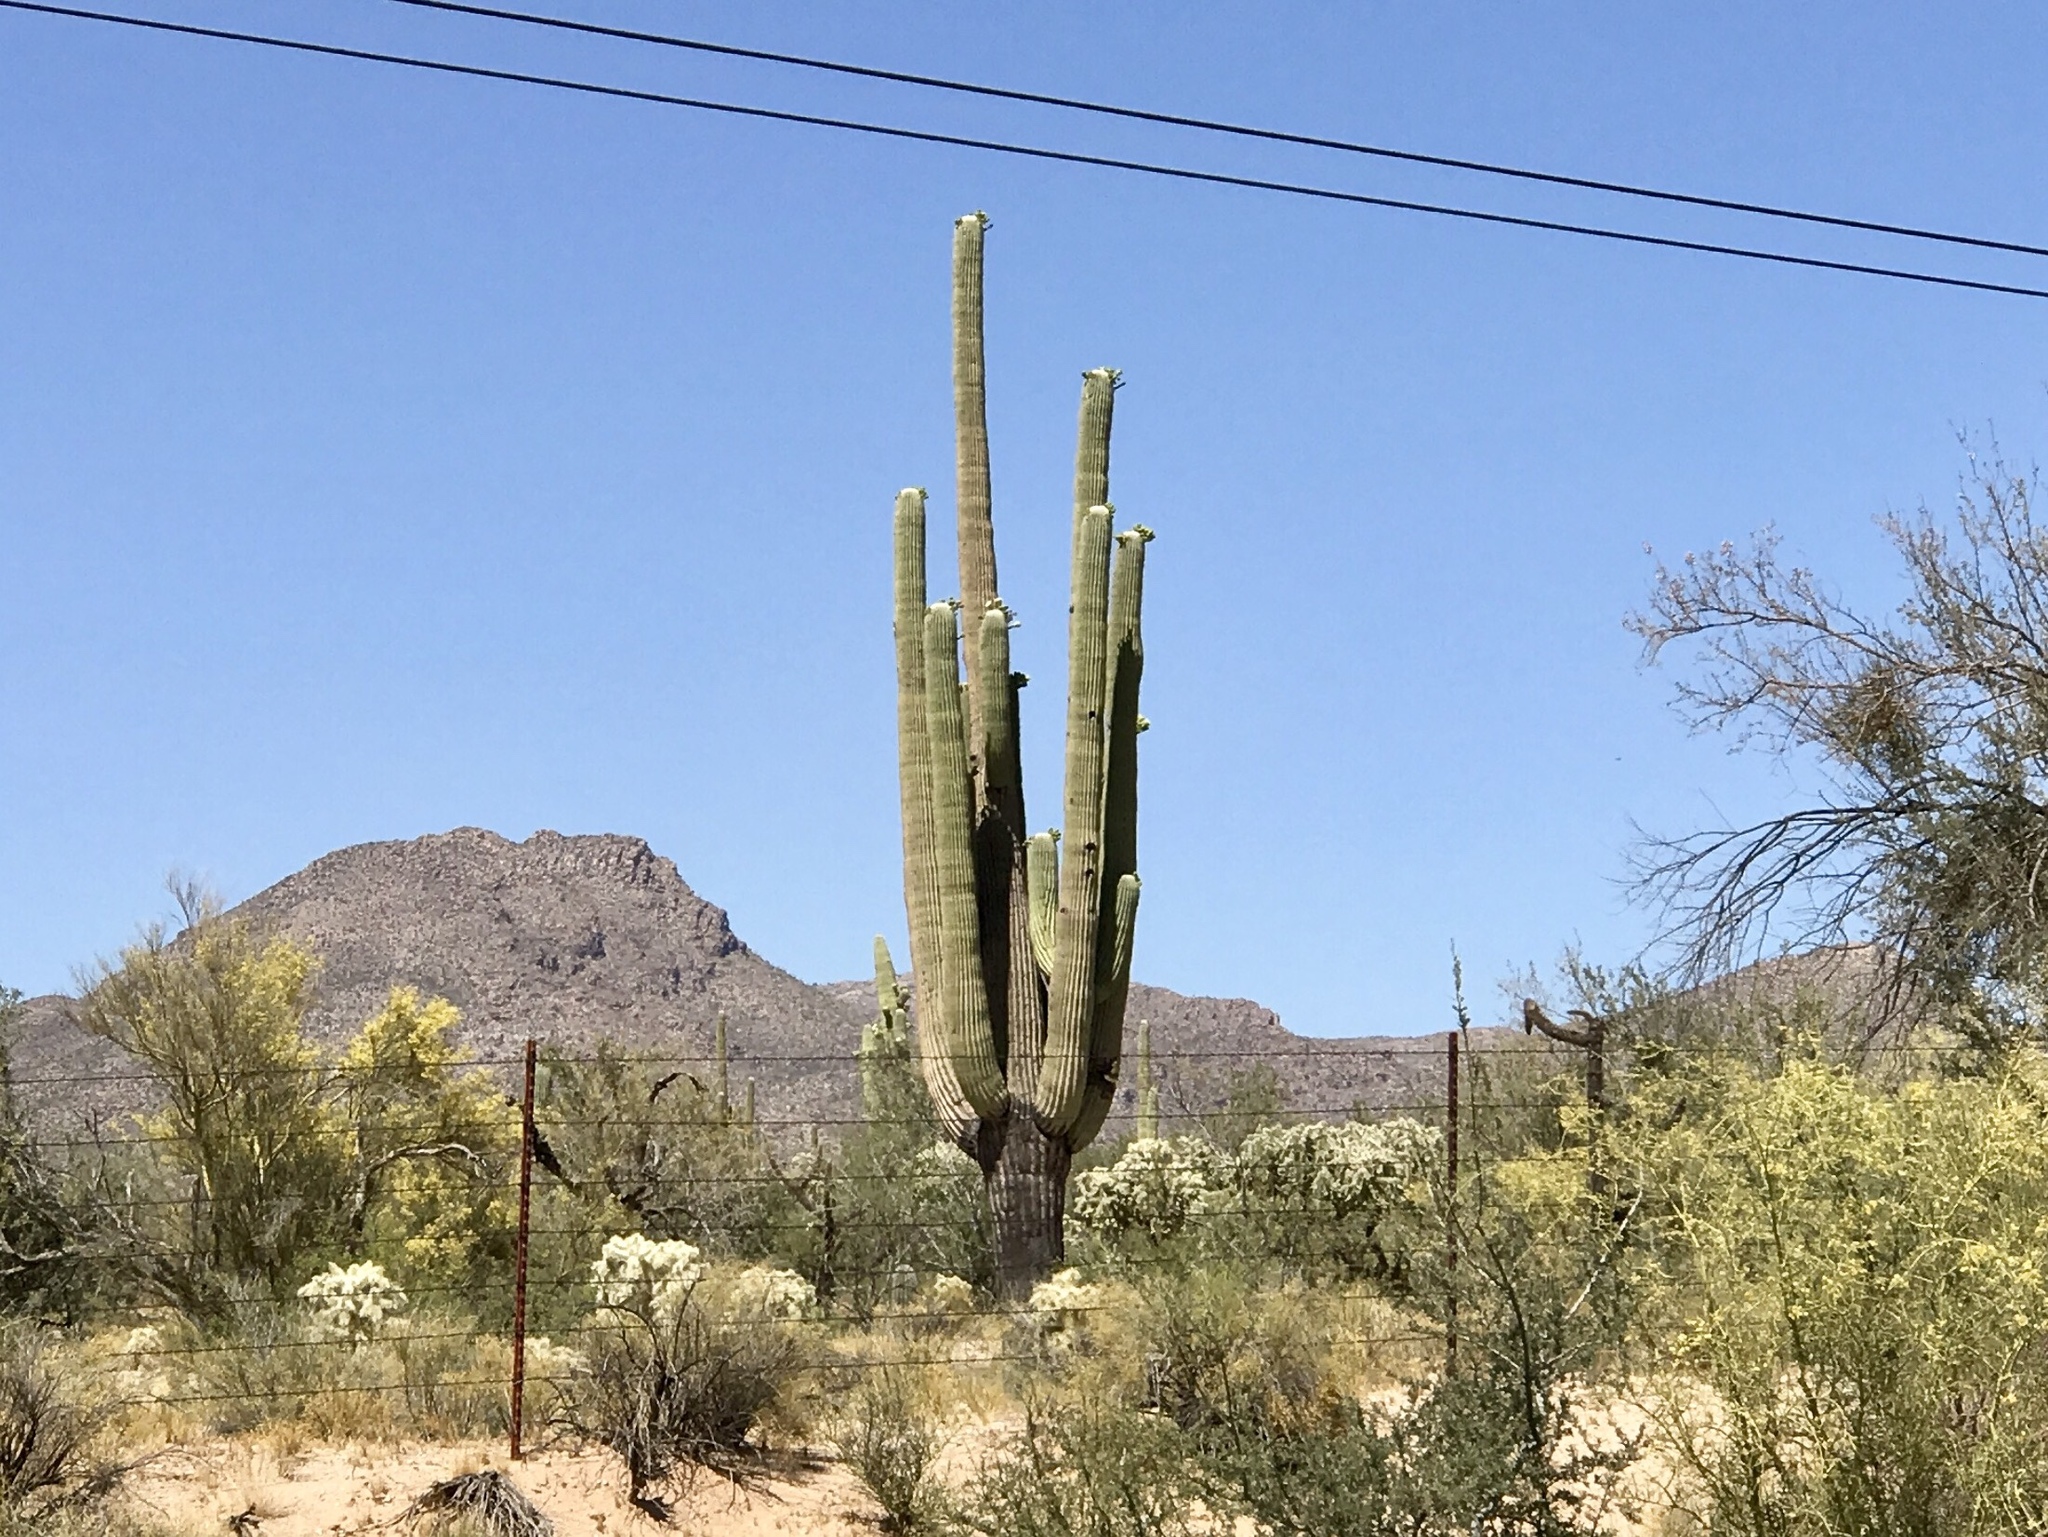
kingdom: Plantae
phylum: Tracheophyta
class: Magnoliopsida
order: Caryophyllales
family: Cactaceae
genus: Carnegiea
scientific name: Carnegiea gigantea
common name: Saguaro
